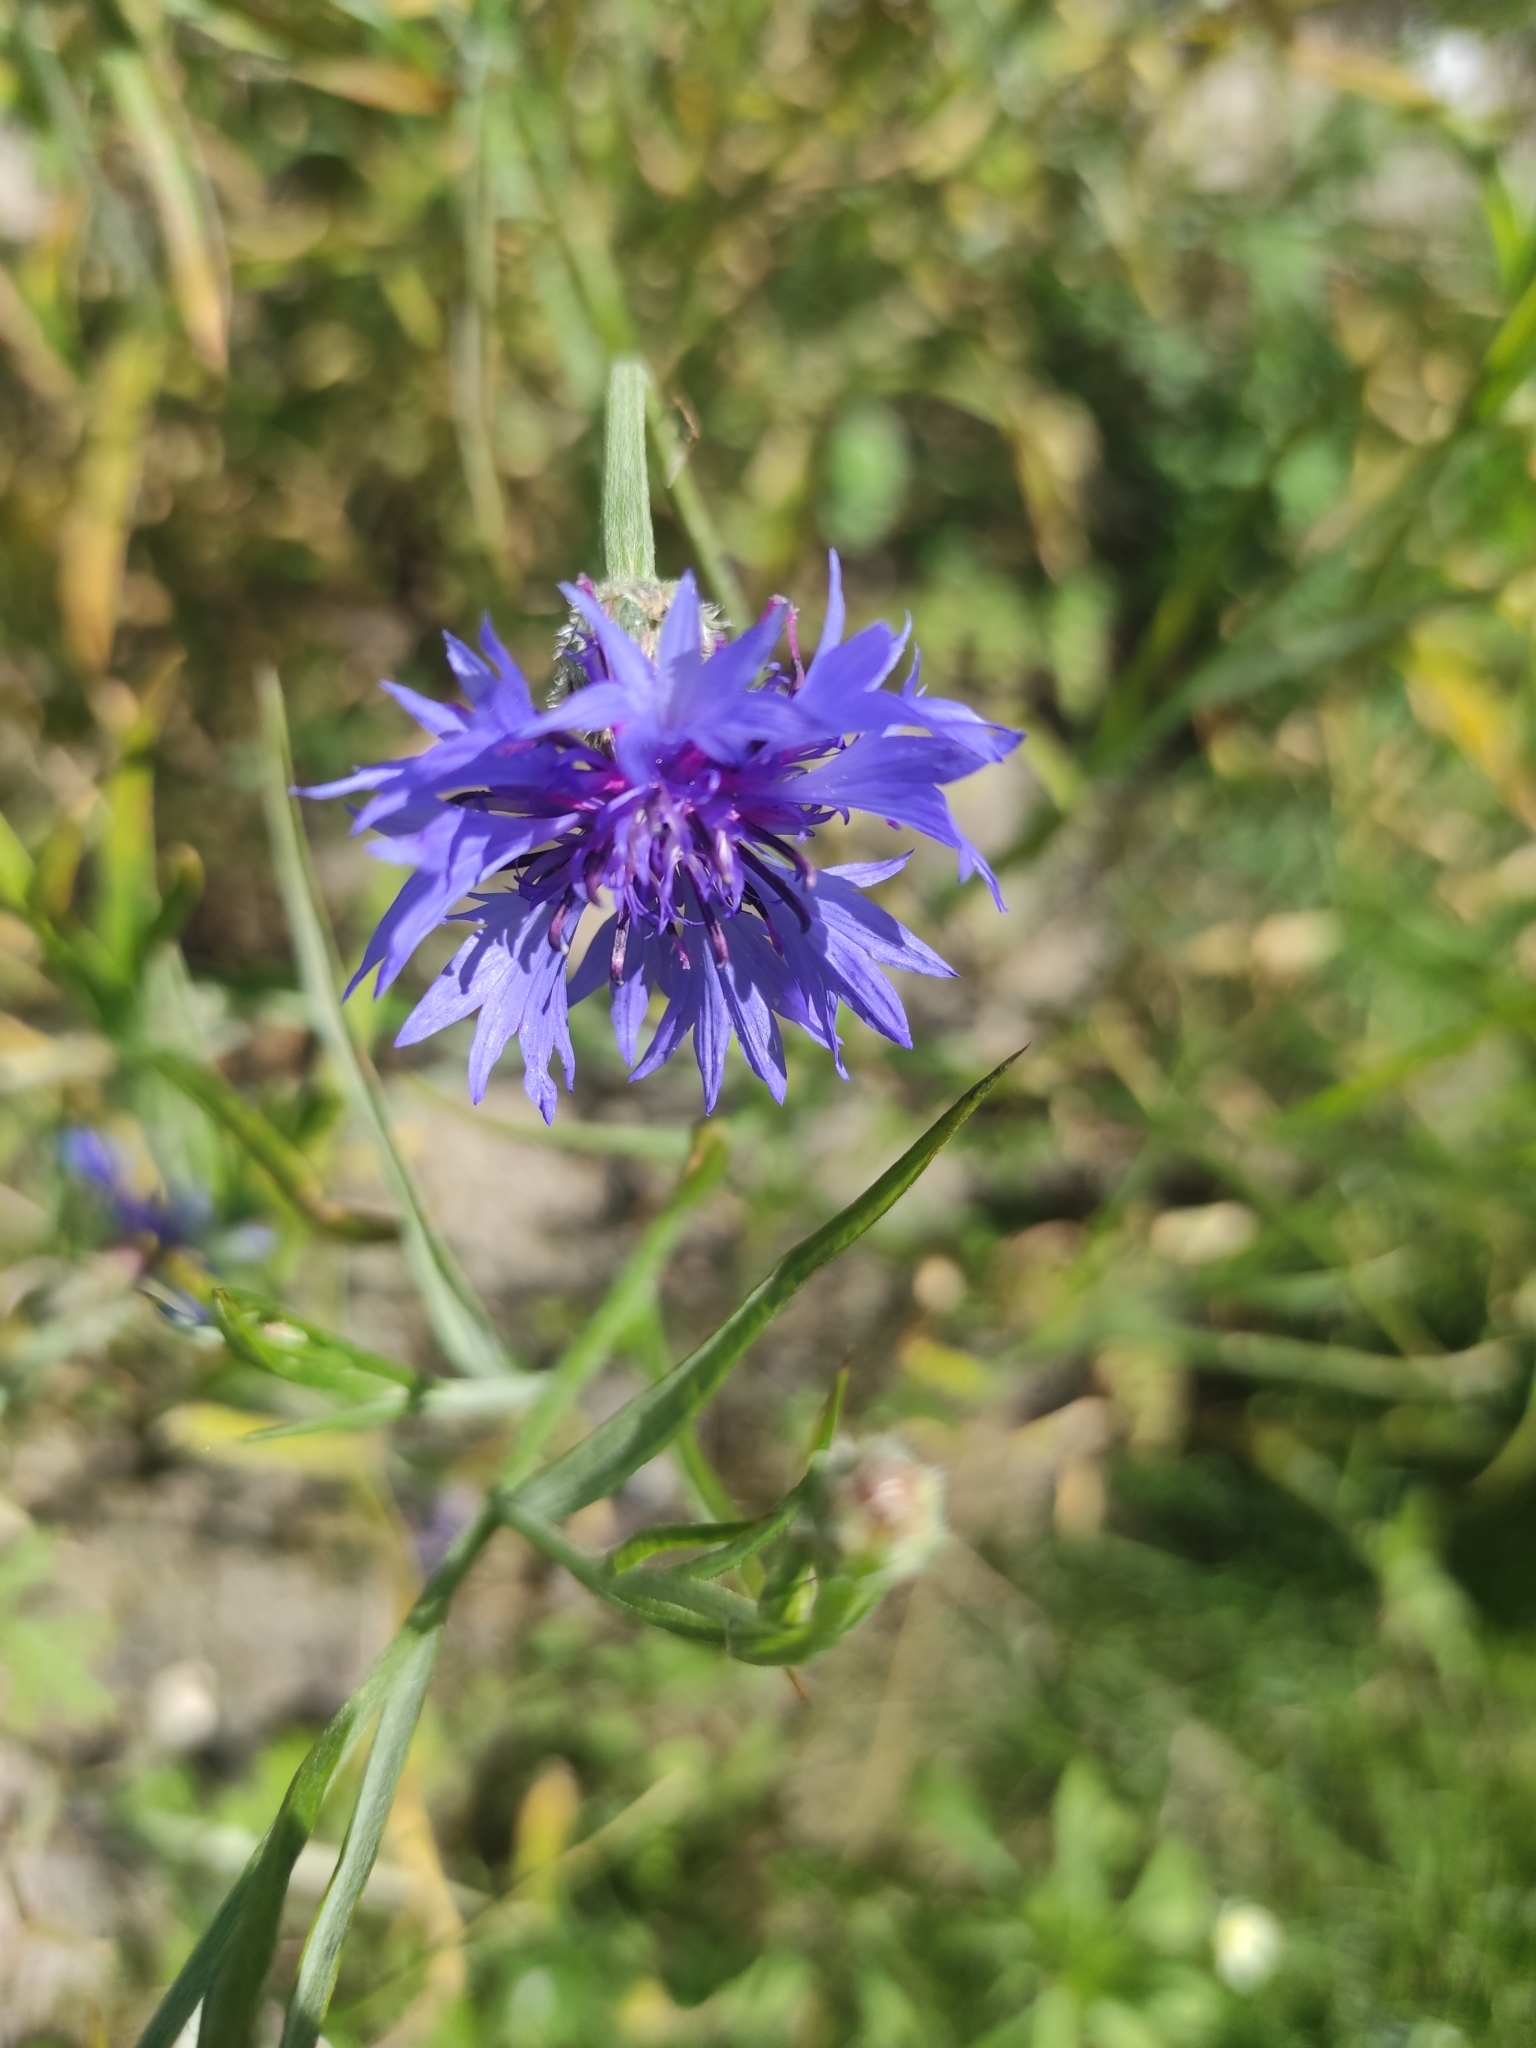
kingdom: Plantae
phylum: Tracheophyta
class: Magnoliopsida
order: Asterales
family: Asteraceae
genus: Centaurea
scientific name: Centaurea cyanus
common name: Cornflower
